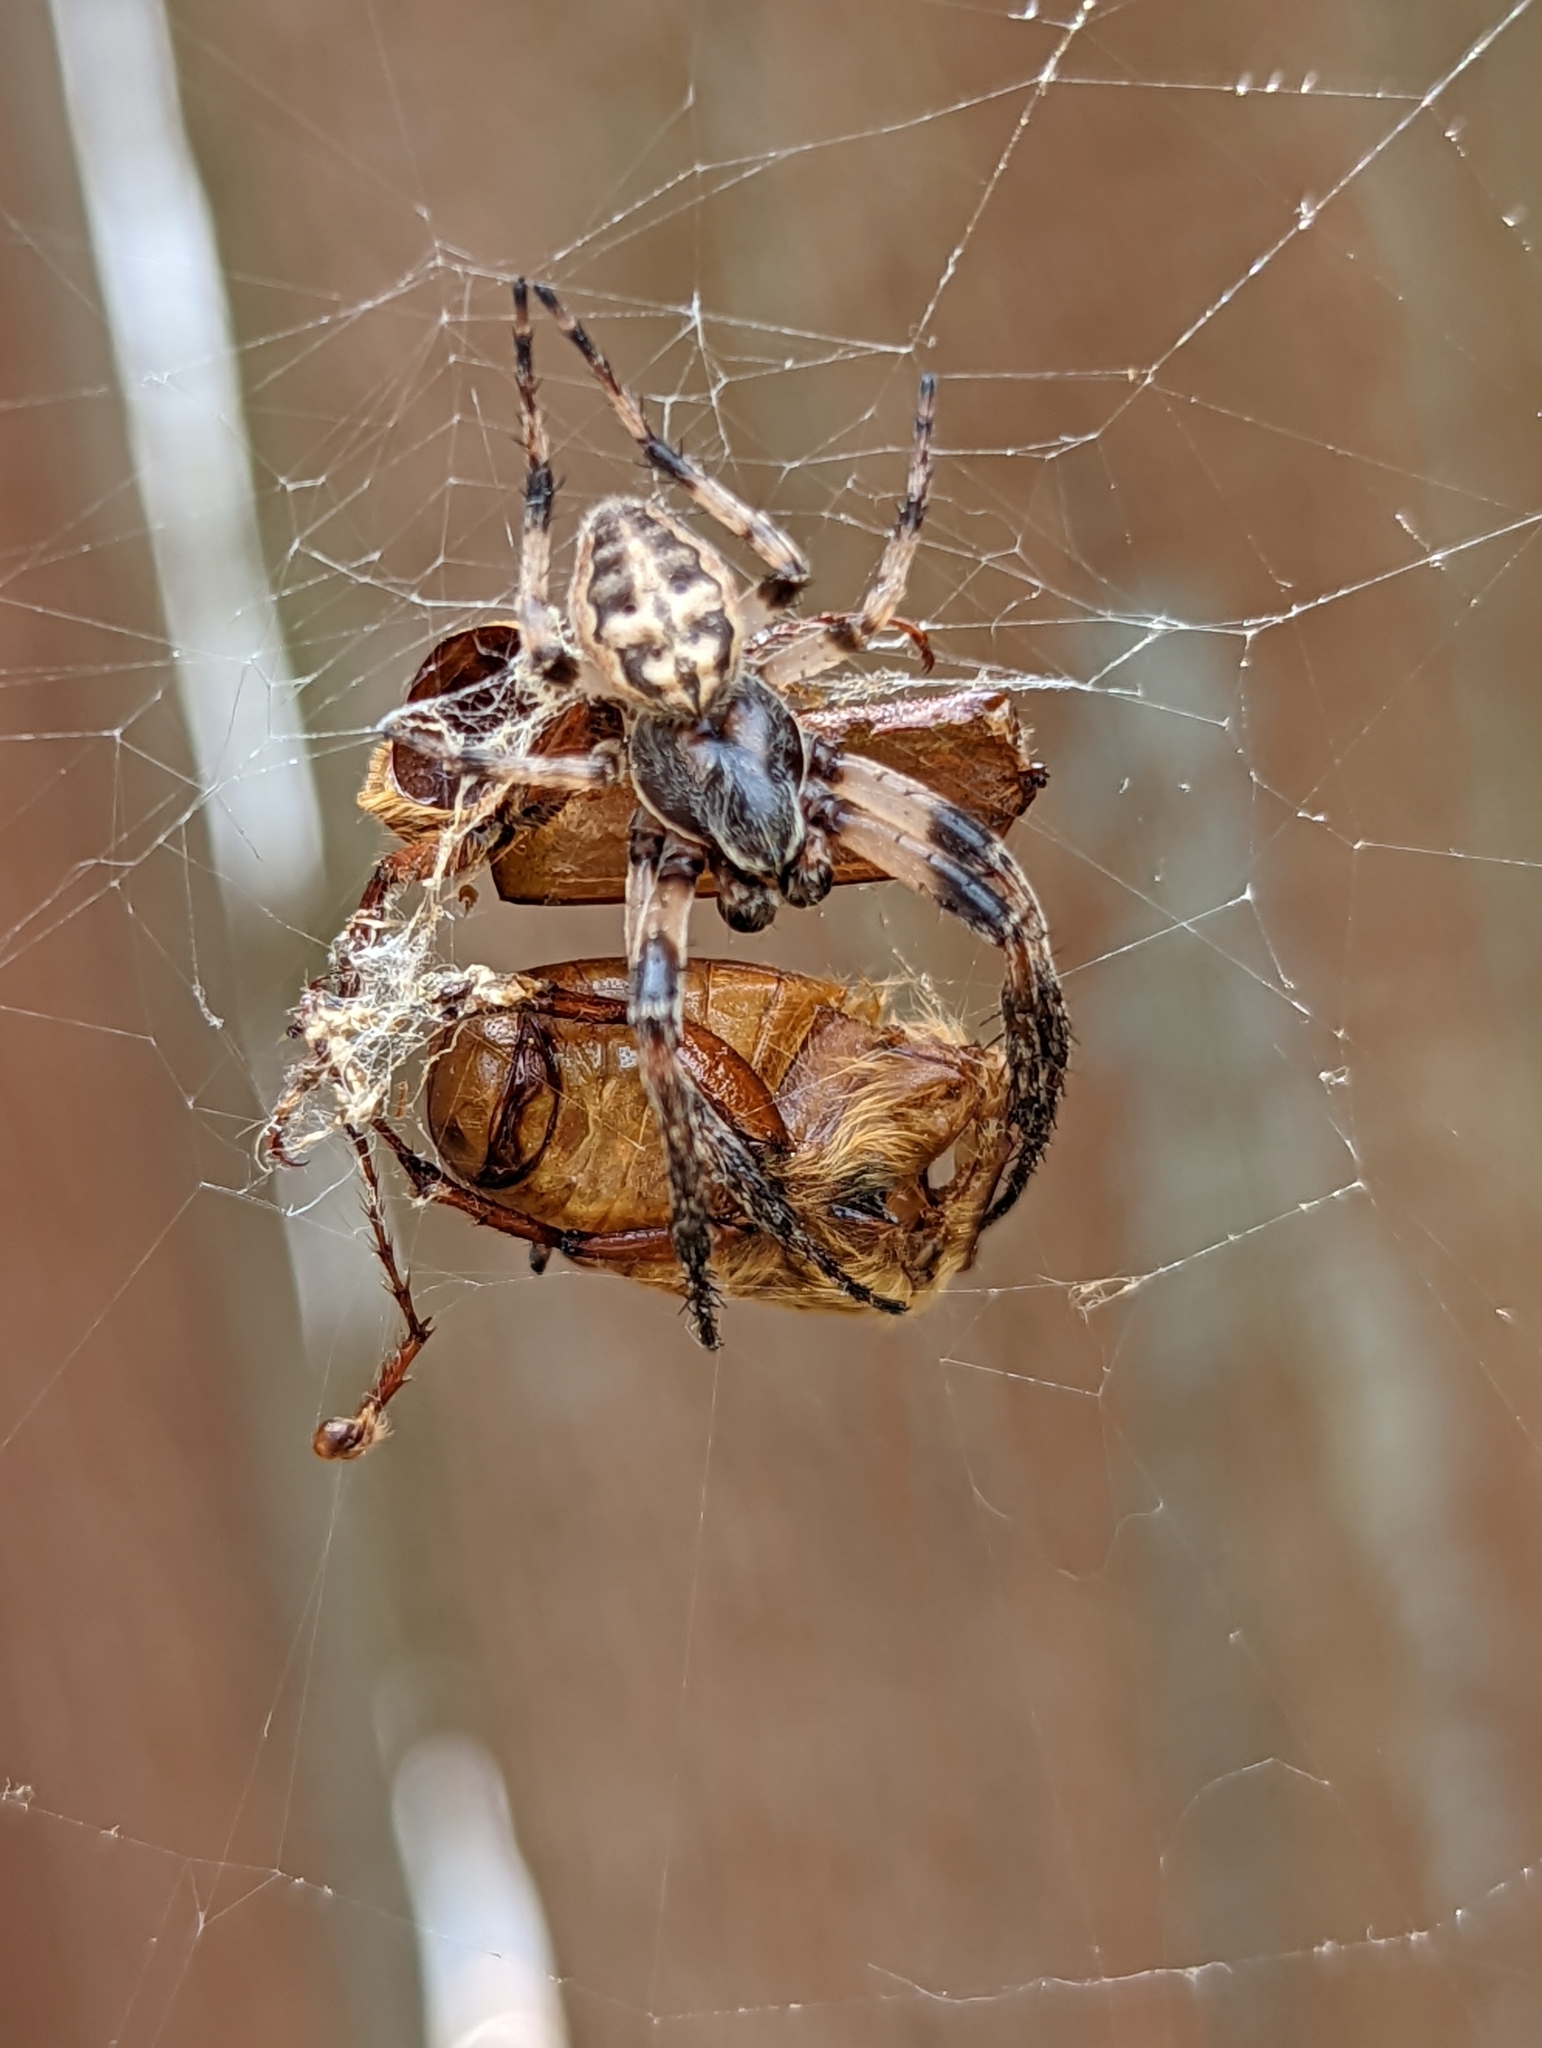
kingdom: Animalia
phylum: Arthropoda
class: Arachnida
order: Araneae
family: Araneidae
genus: Larinioides
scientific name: Larinioides cornutus
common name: Furrow orbweaver
